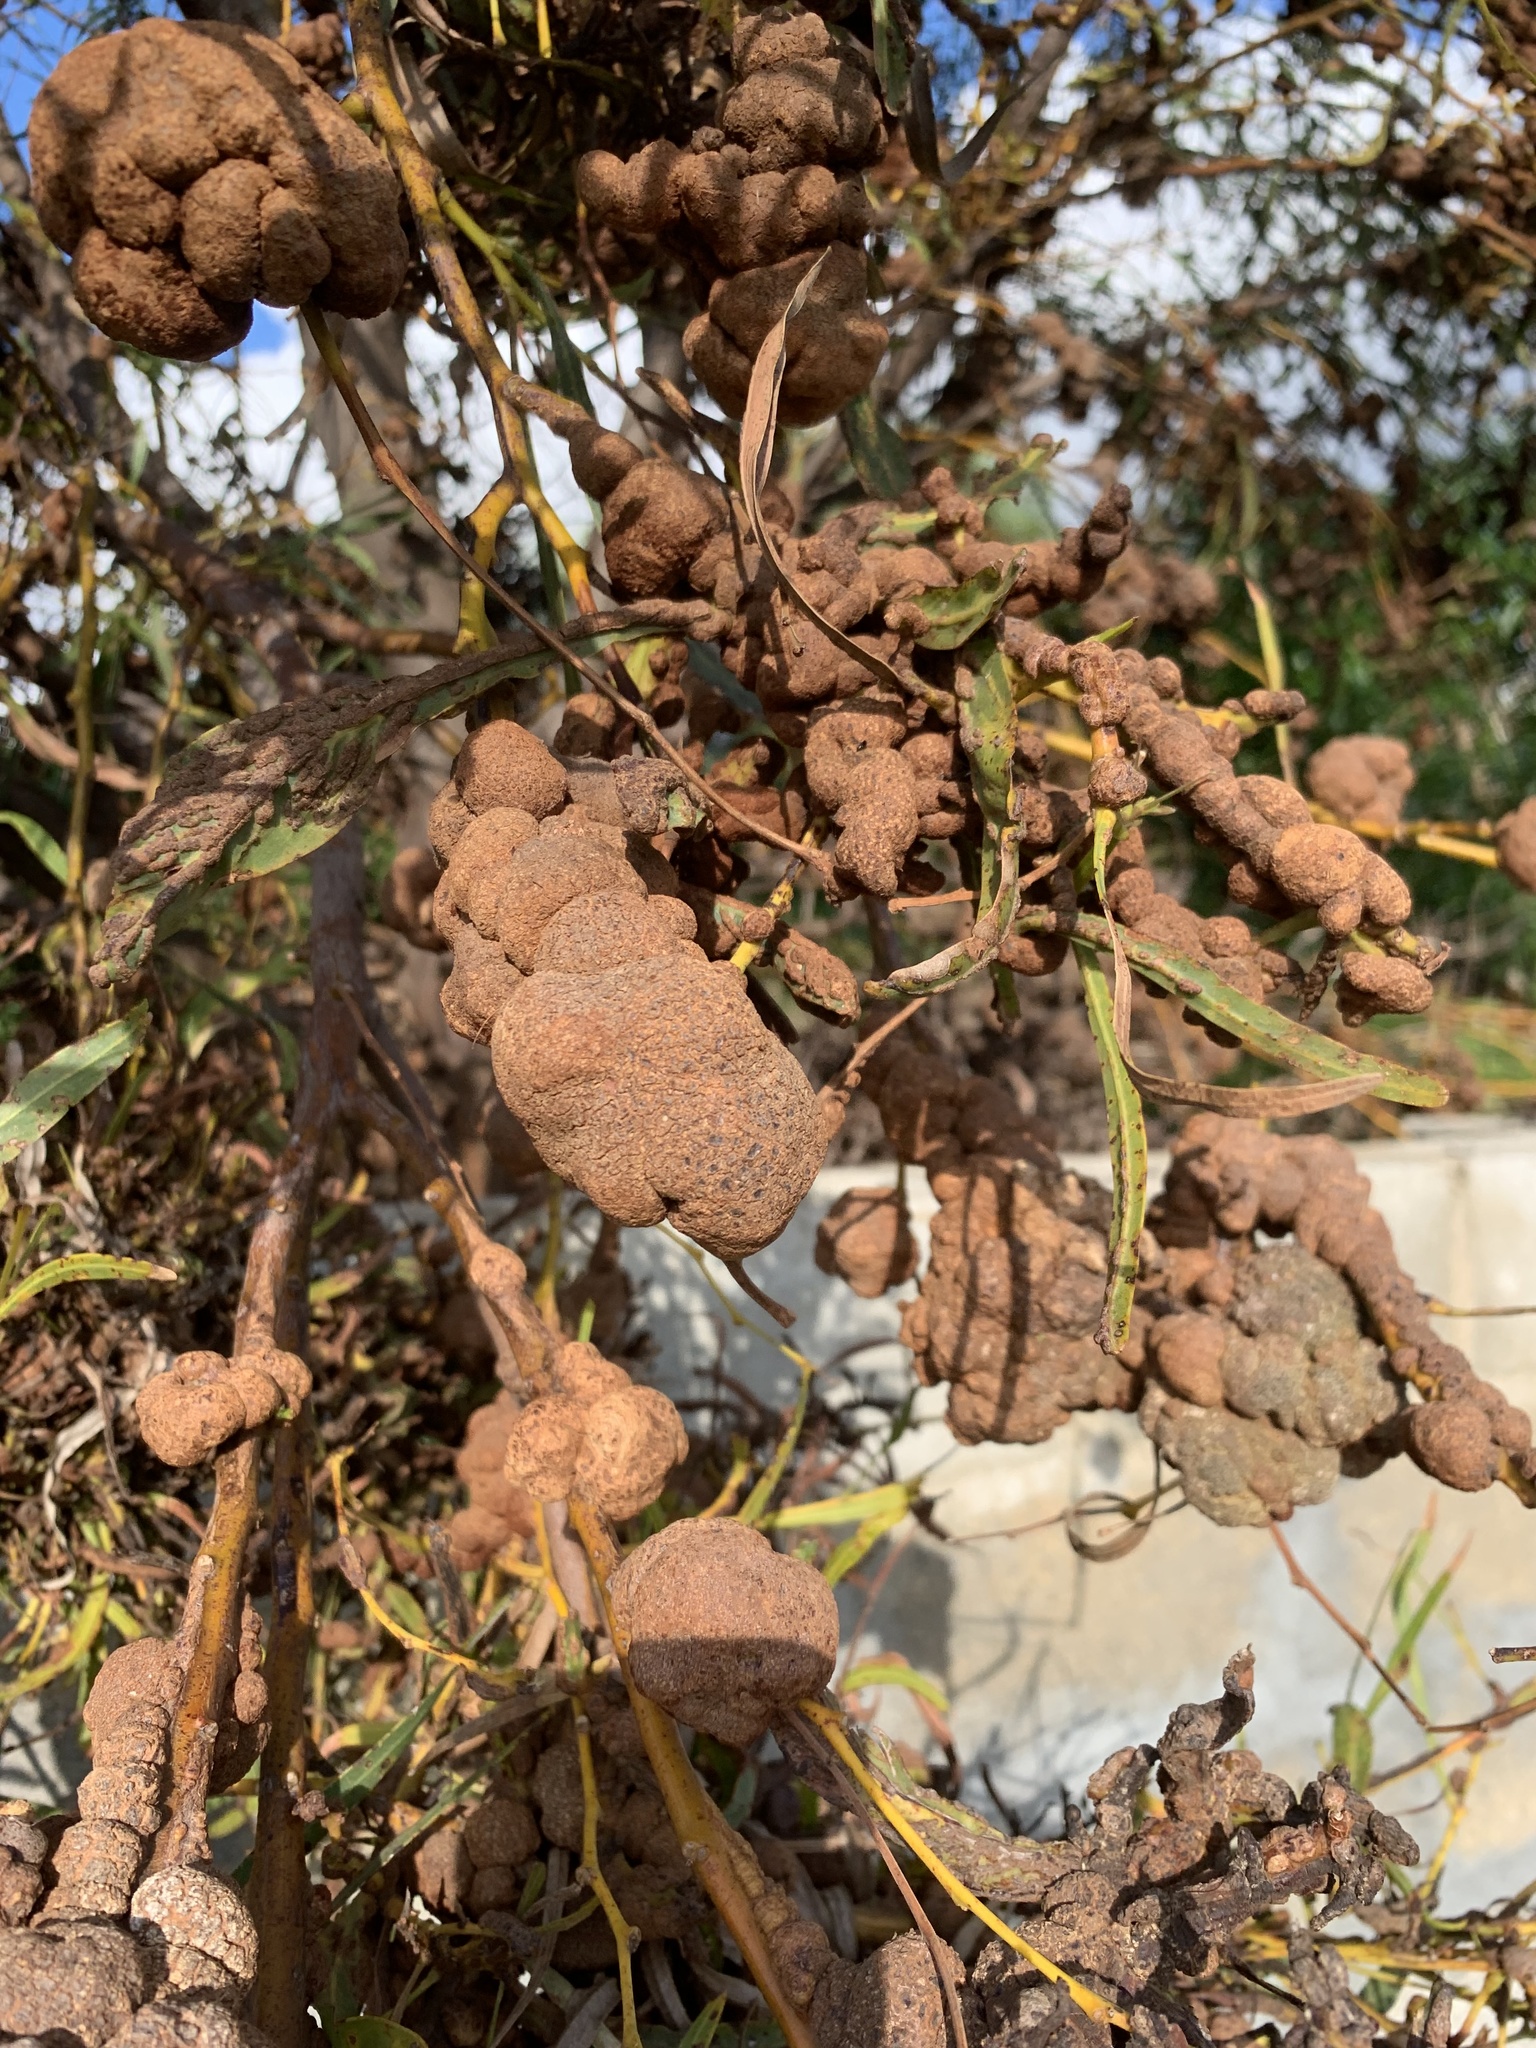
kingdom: Plantae
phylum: Tracheophyta
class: Magnoliopsida
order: Fabales
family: Fabaceae
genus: Acacia
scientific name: Acacia saligna
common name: Orange wattle
